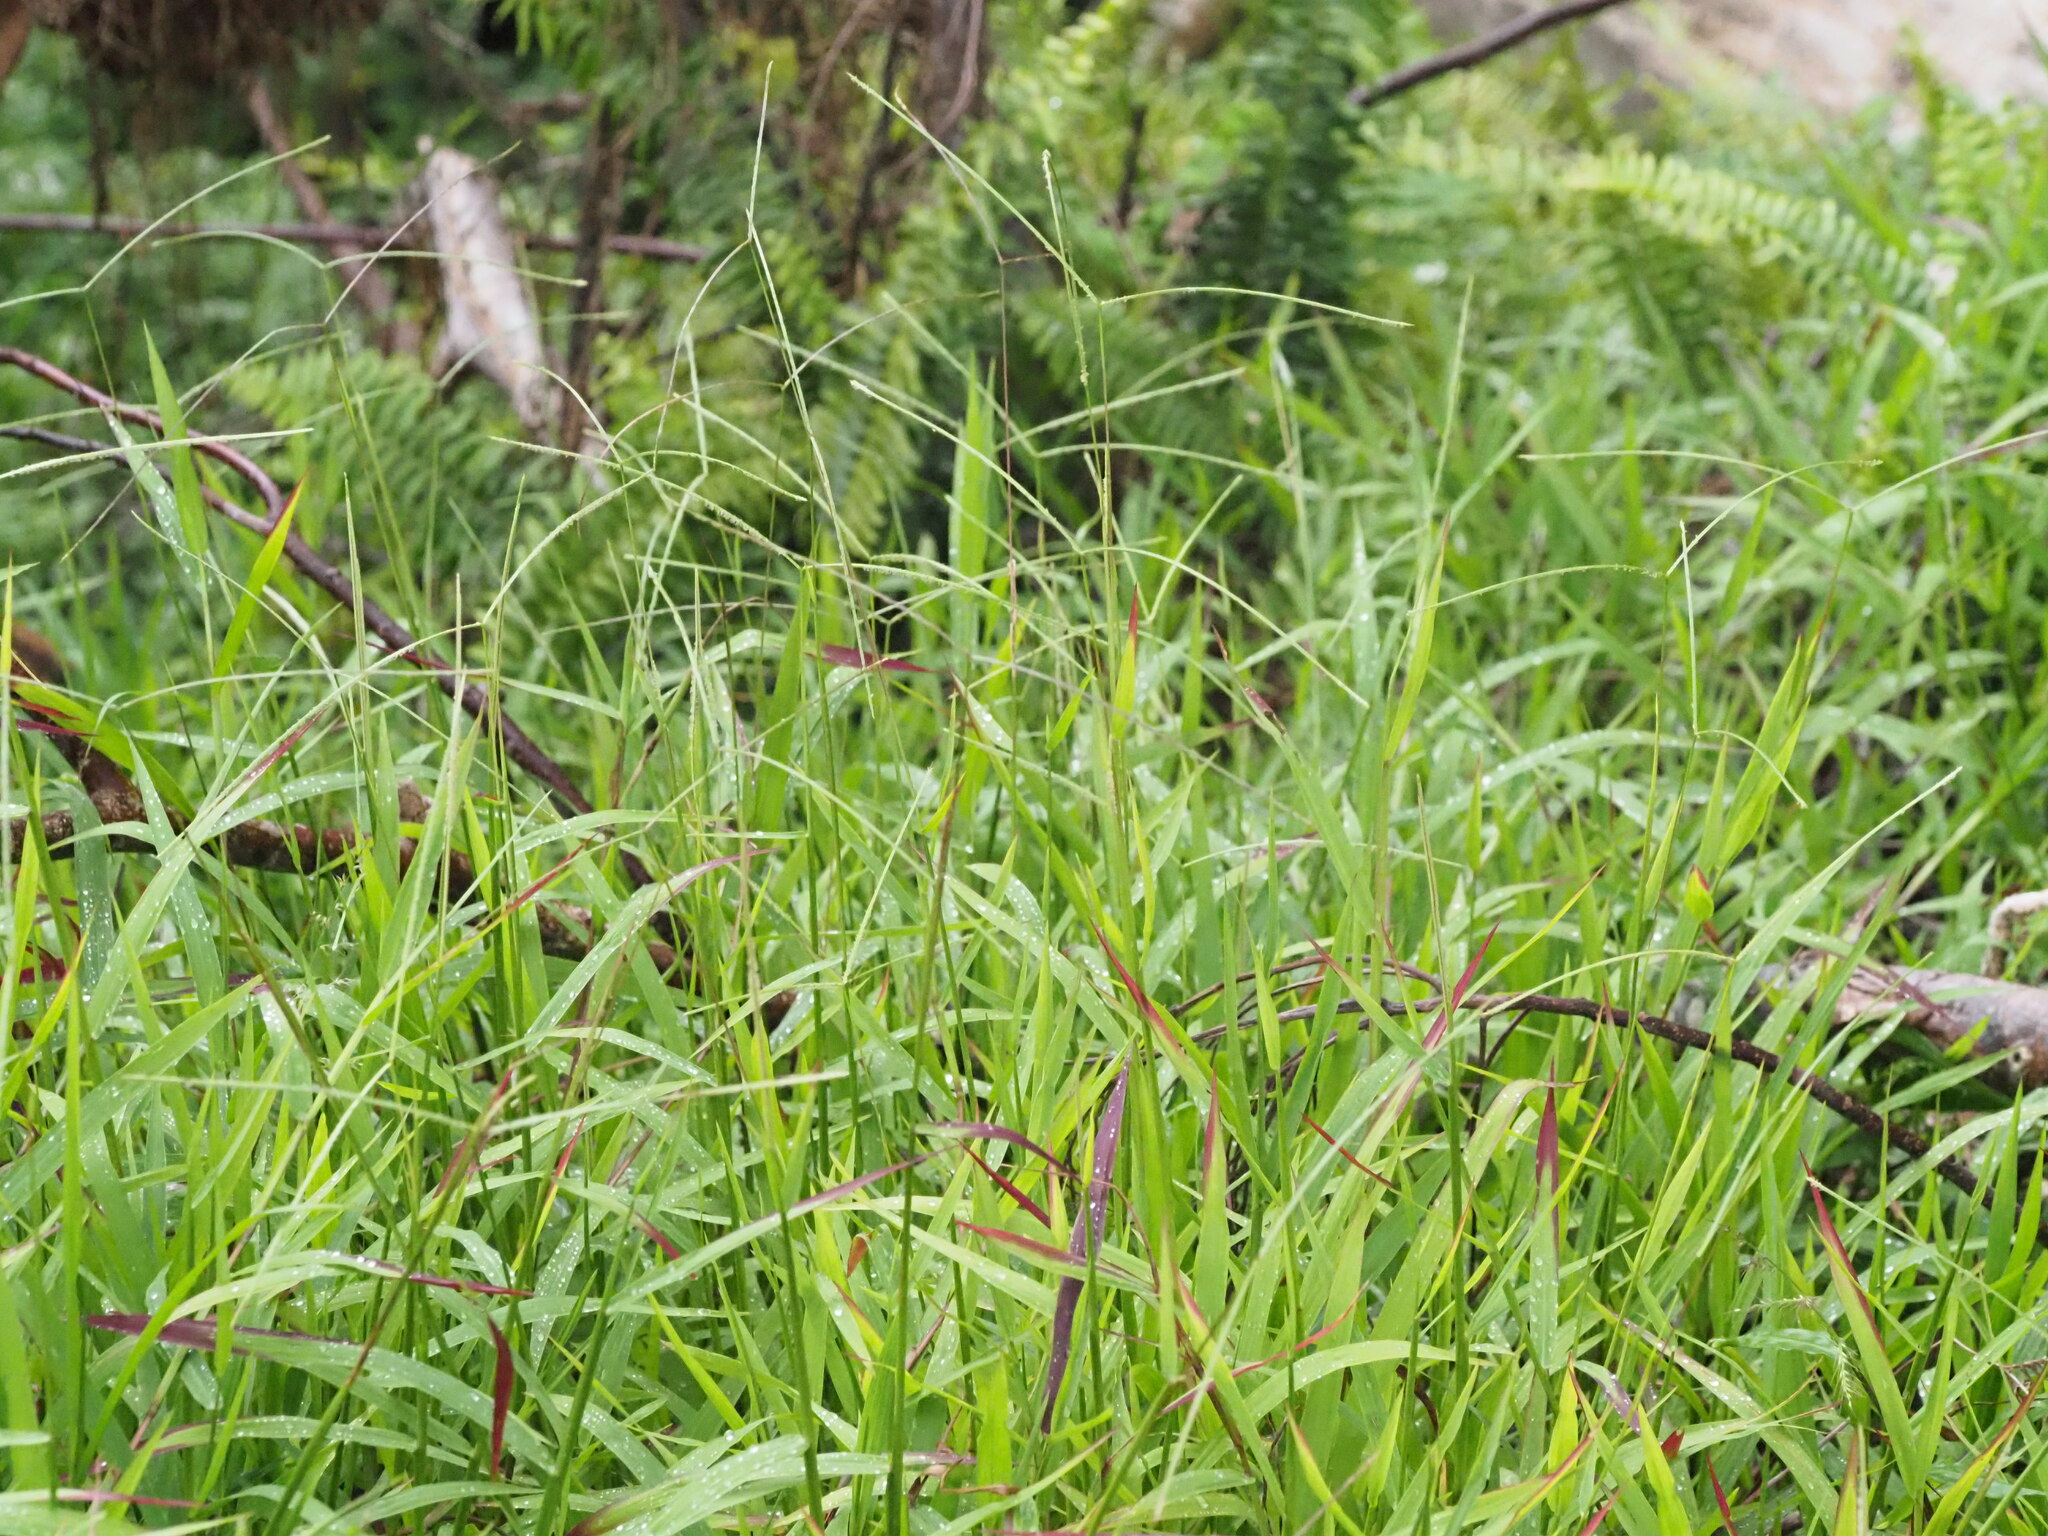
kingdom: Plantae
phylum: Tracheophyta
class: Liliopsida
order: Poales
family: Poaceae
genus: Paspalum
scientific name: Paspalum conjugatum
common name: Hilograss
